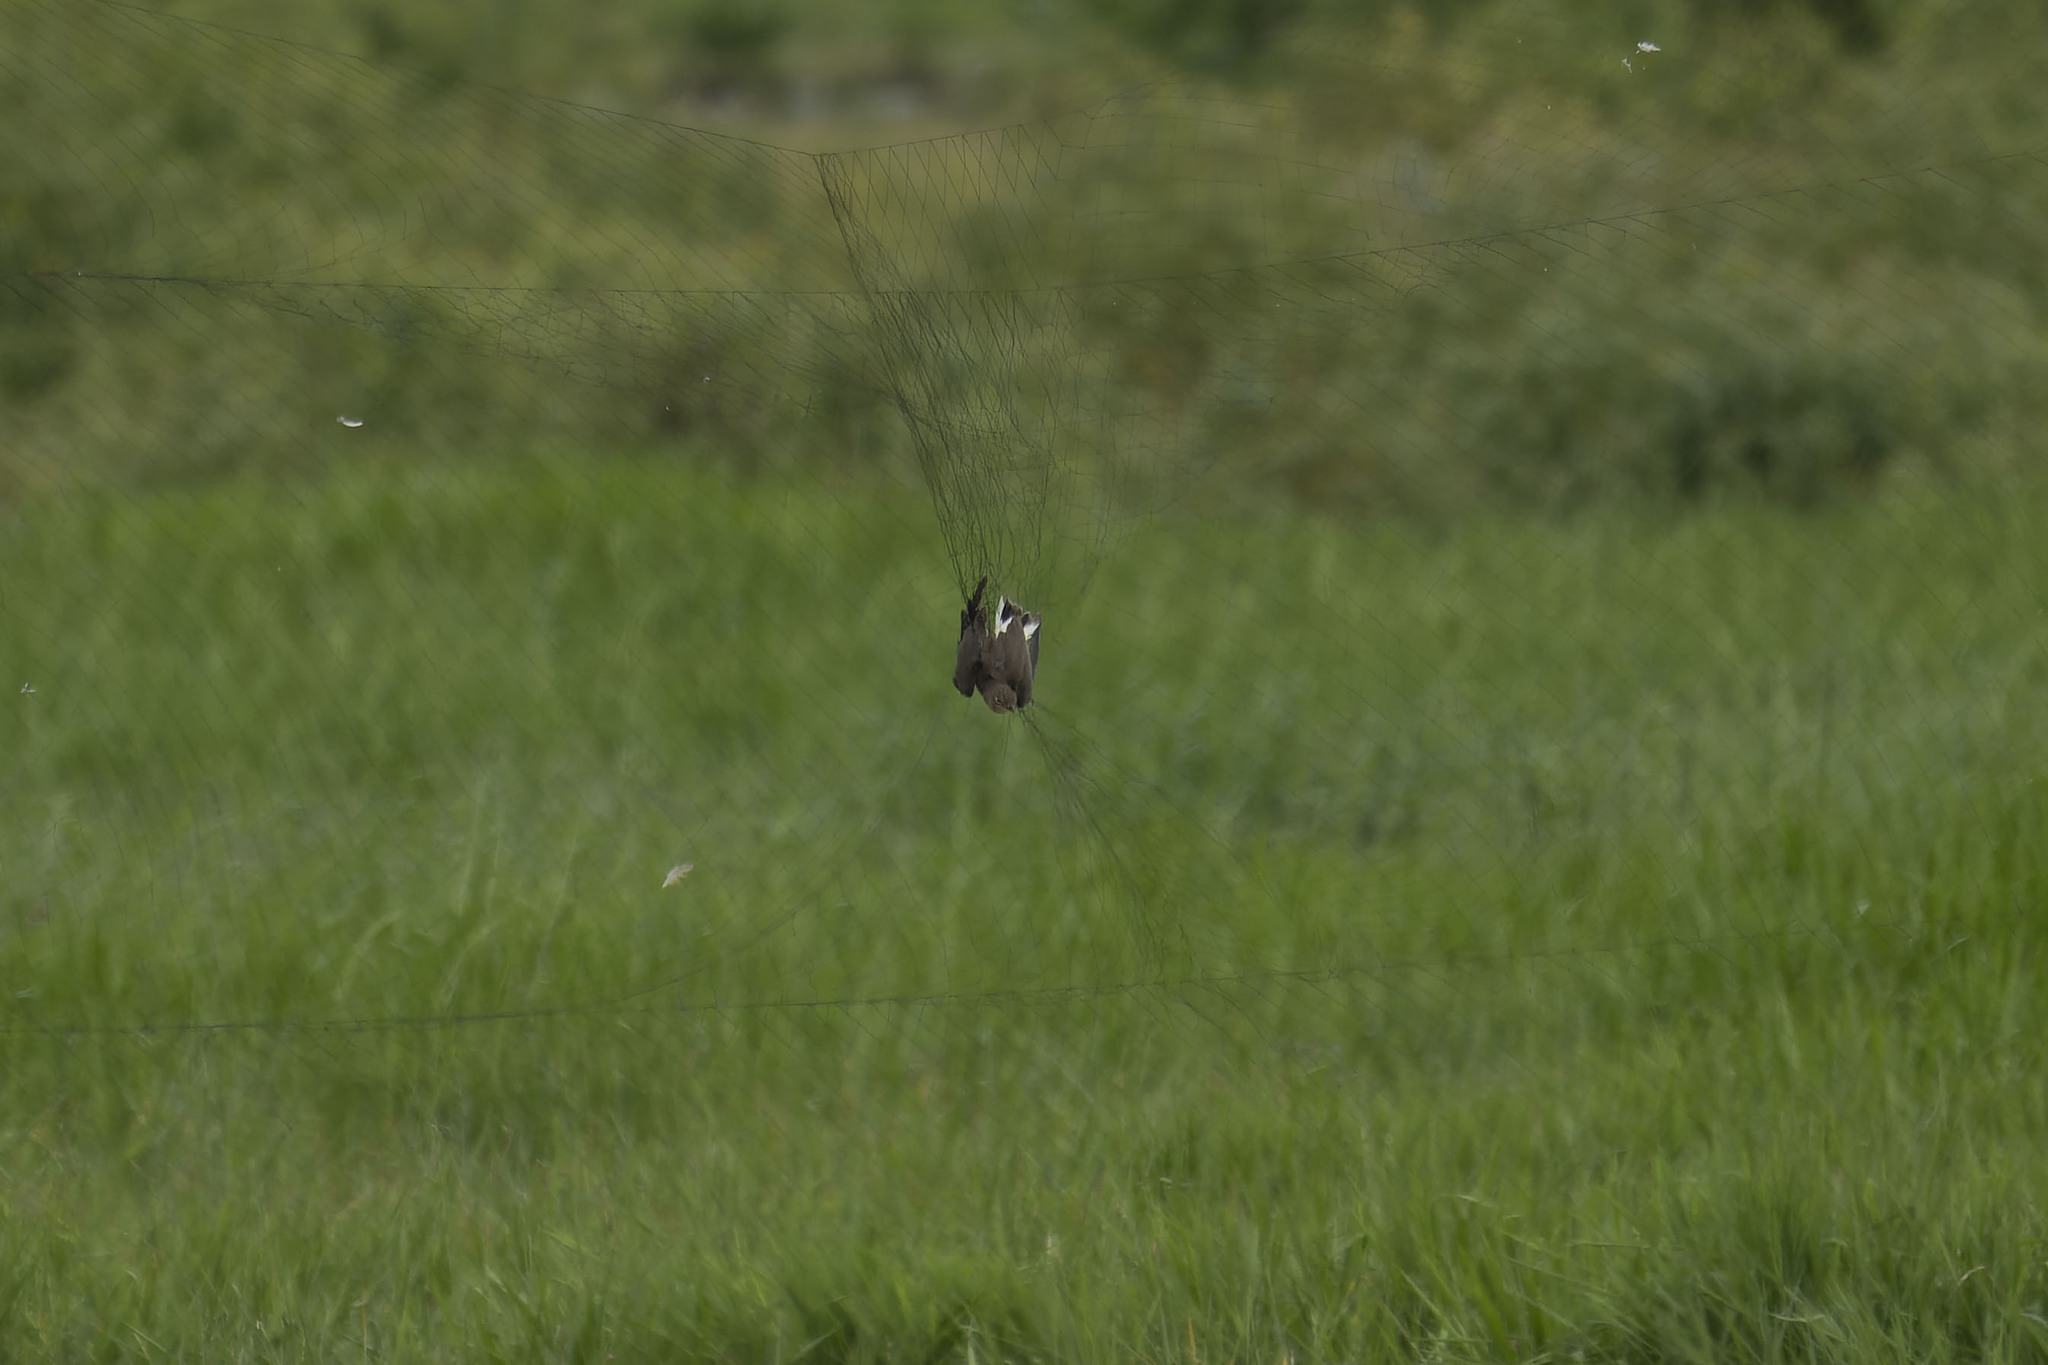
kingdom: Animalia
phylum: Chordata
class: Aves
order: Charadriiformes
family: Glareolidae
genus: Glareola
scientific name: Glareola maldivarum
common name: Oriental pratincole
